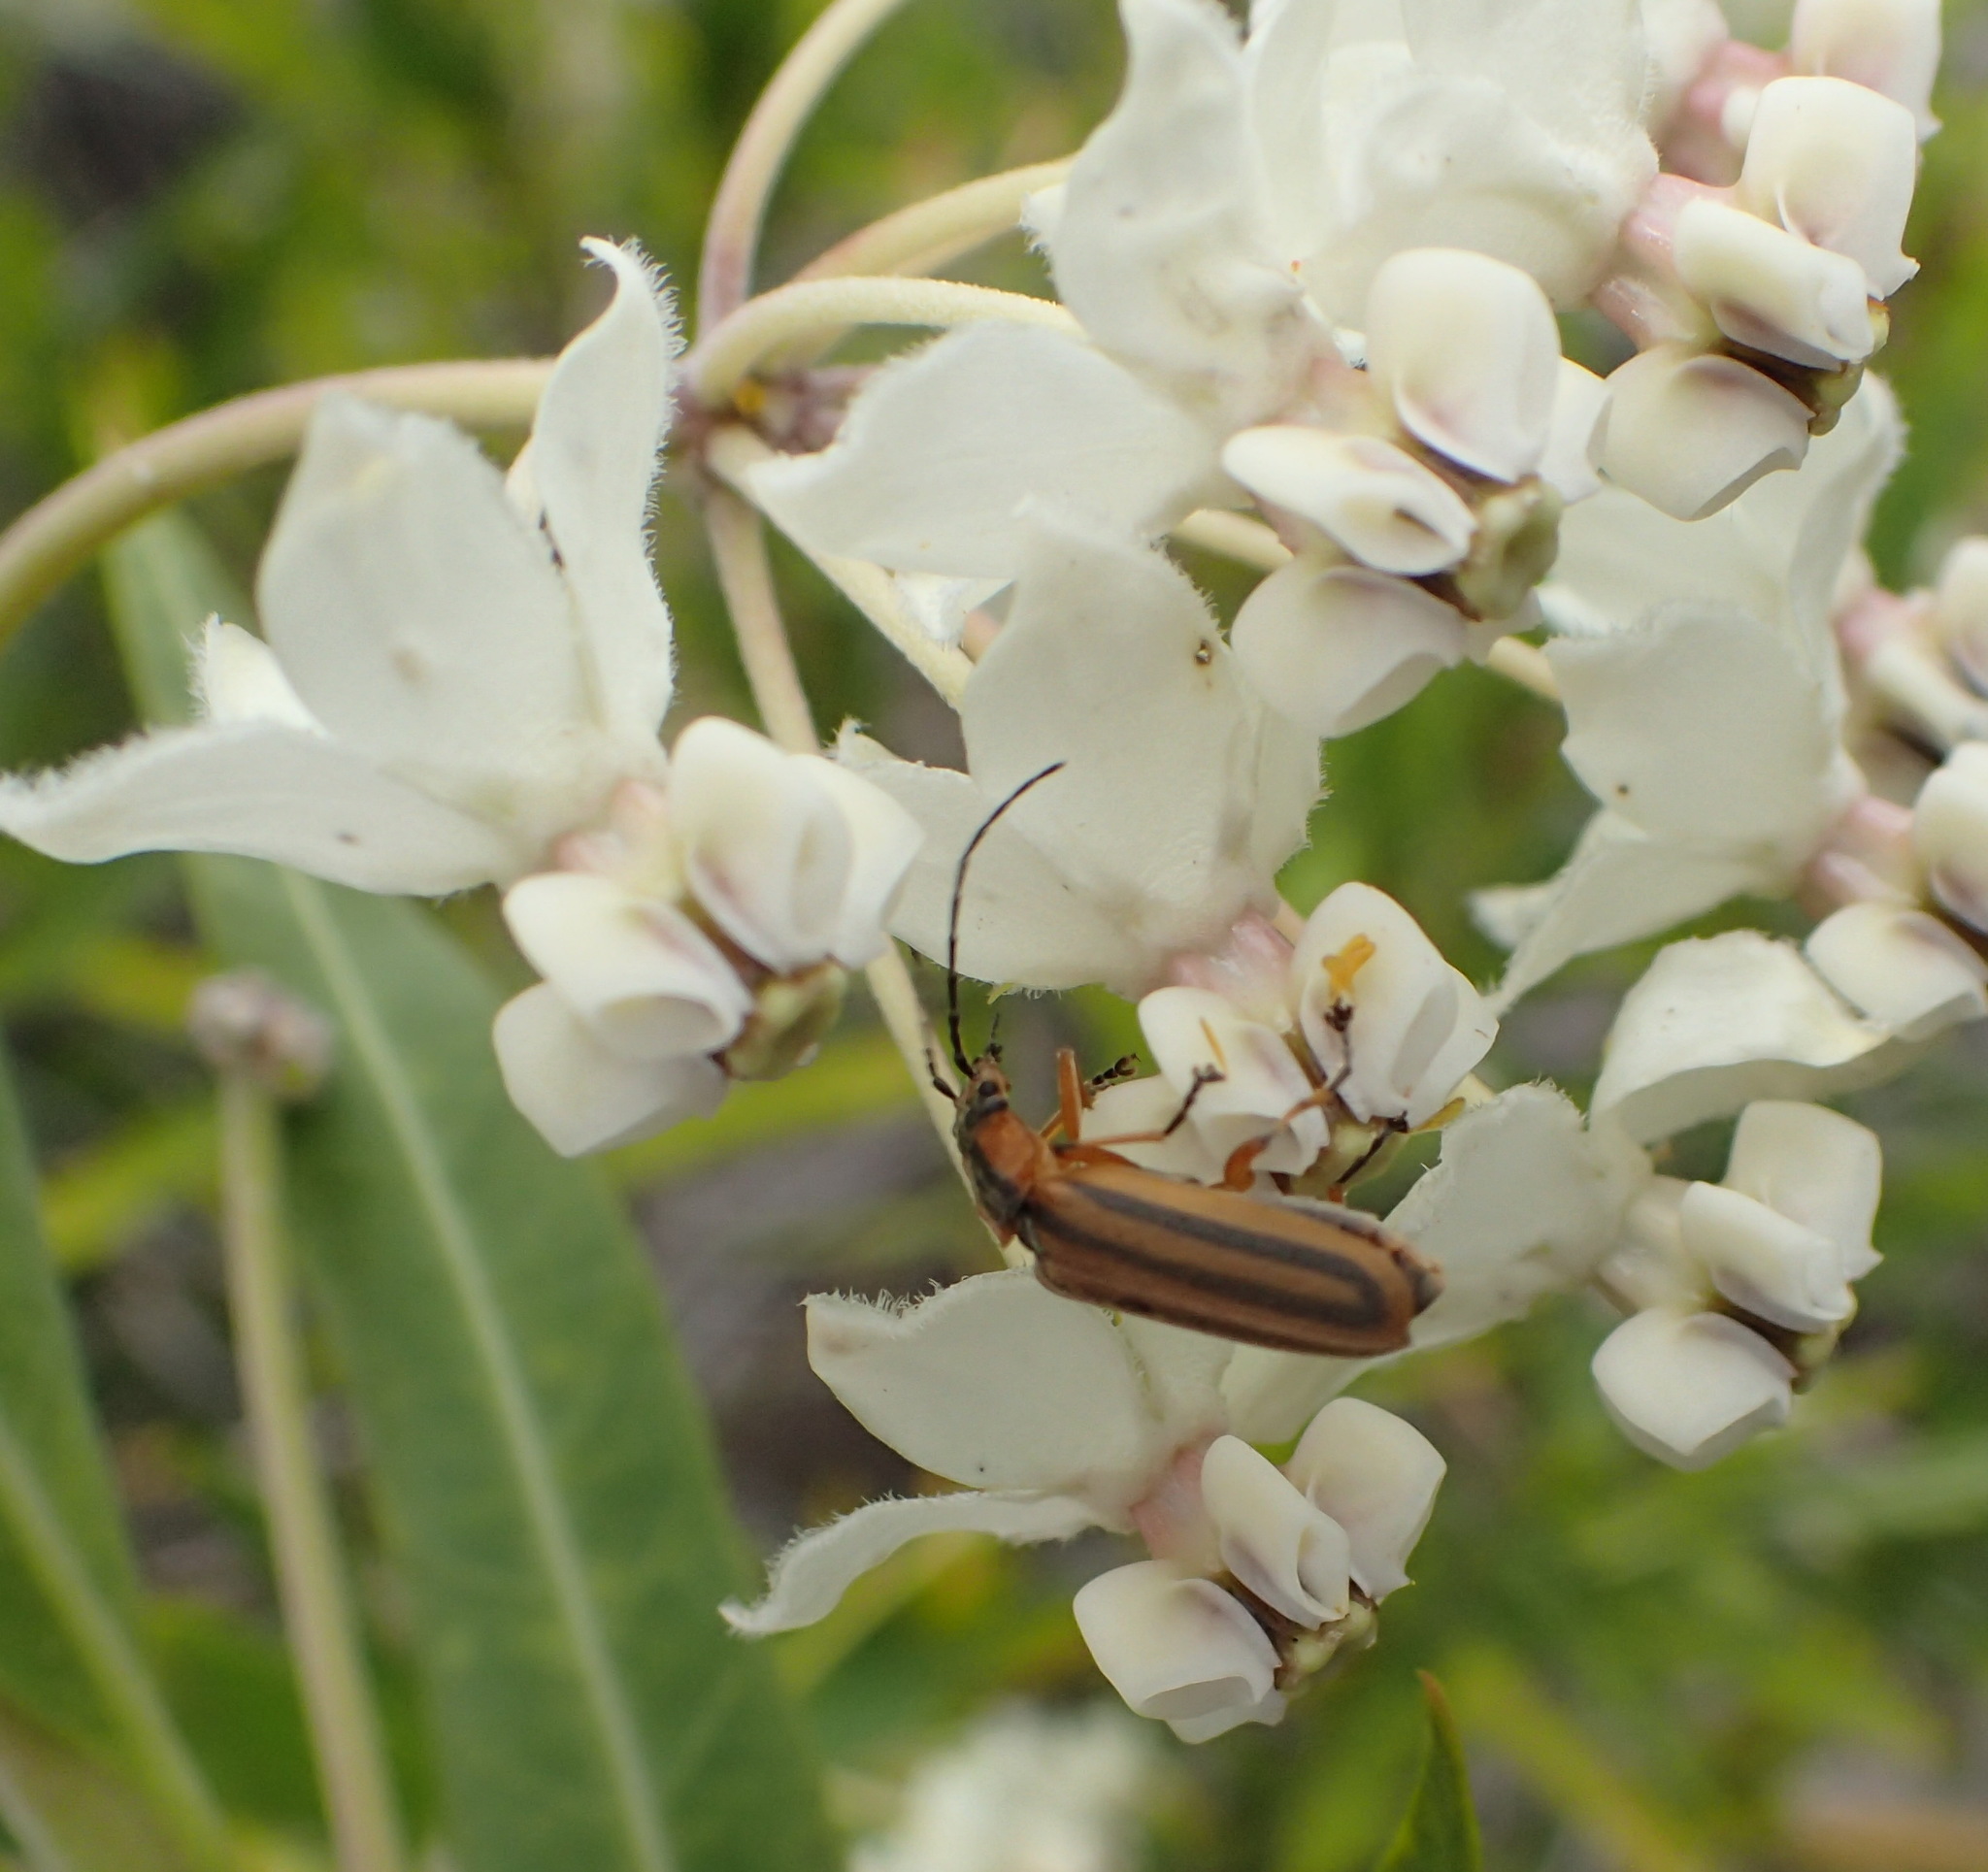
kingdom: Plantae
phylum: Tracheophyta
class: Magnoliopsida
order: Gentianales
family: Apocynaceae
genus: Gomphocarpus
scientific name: Gomphocarpus physocarpus
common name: Balloon cotton bush
